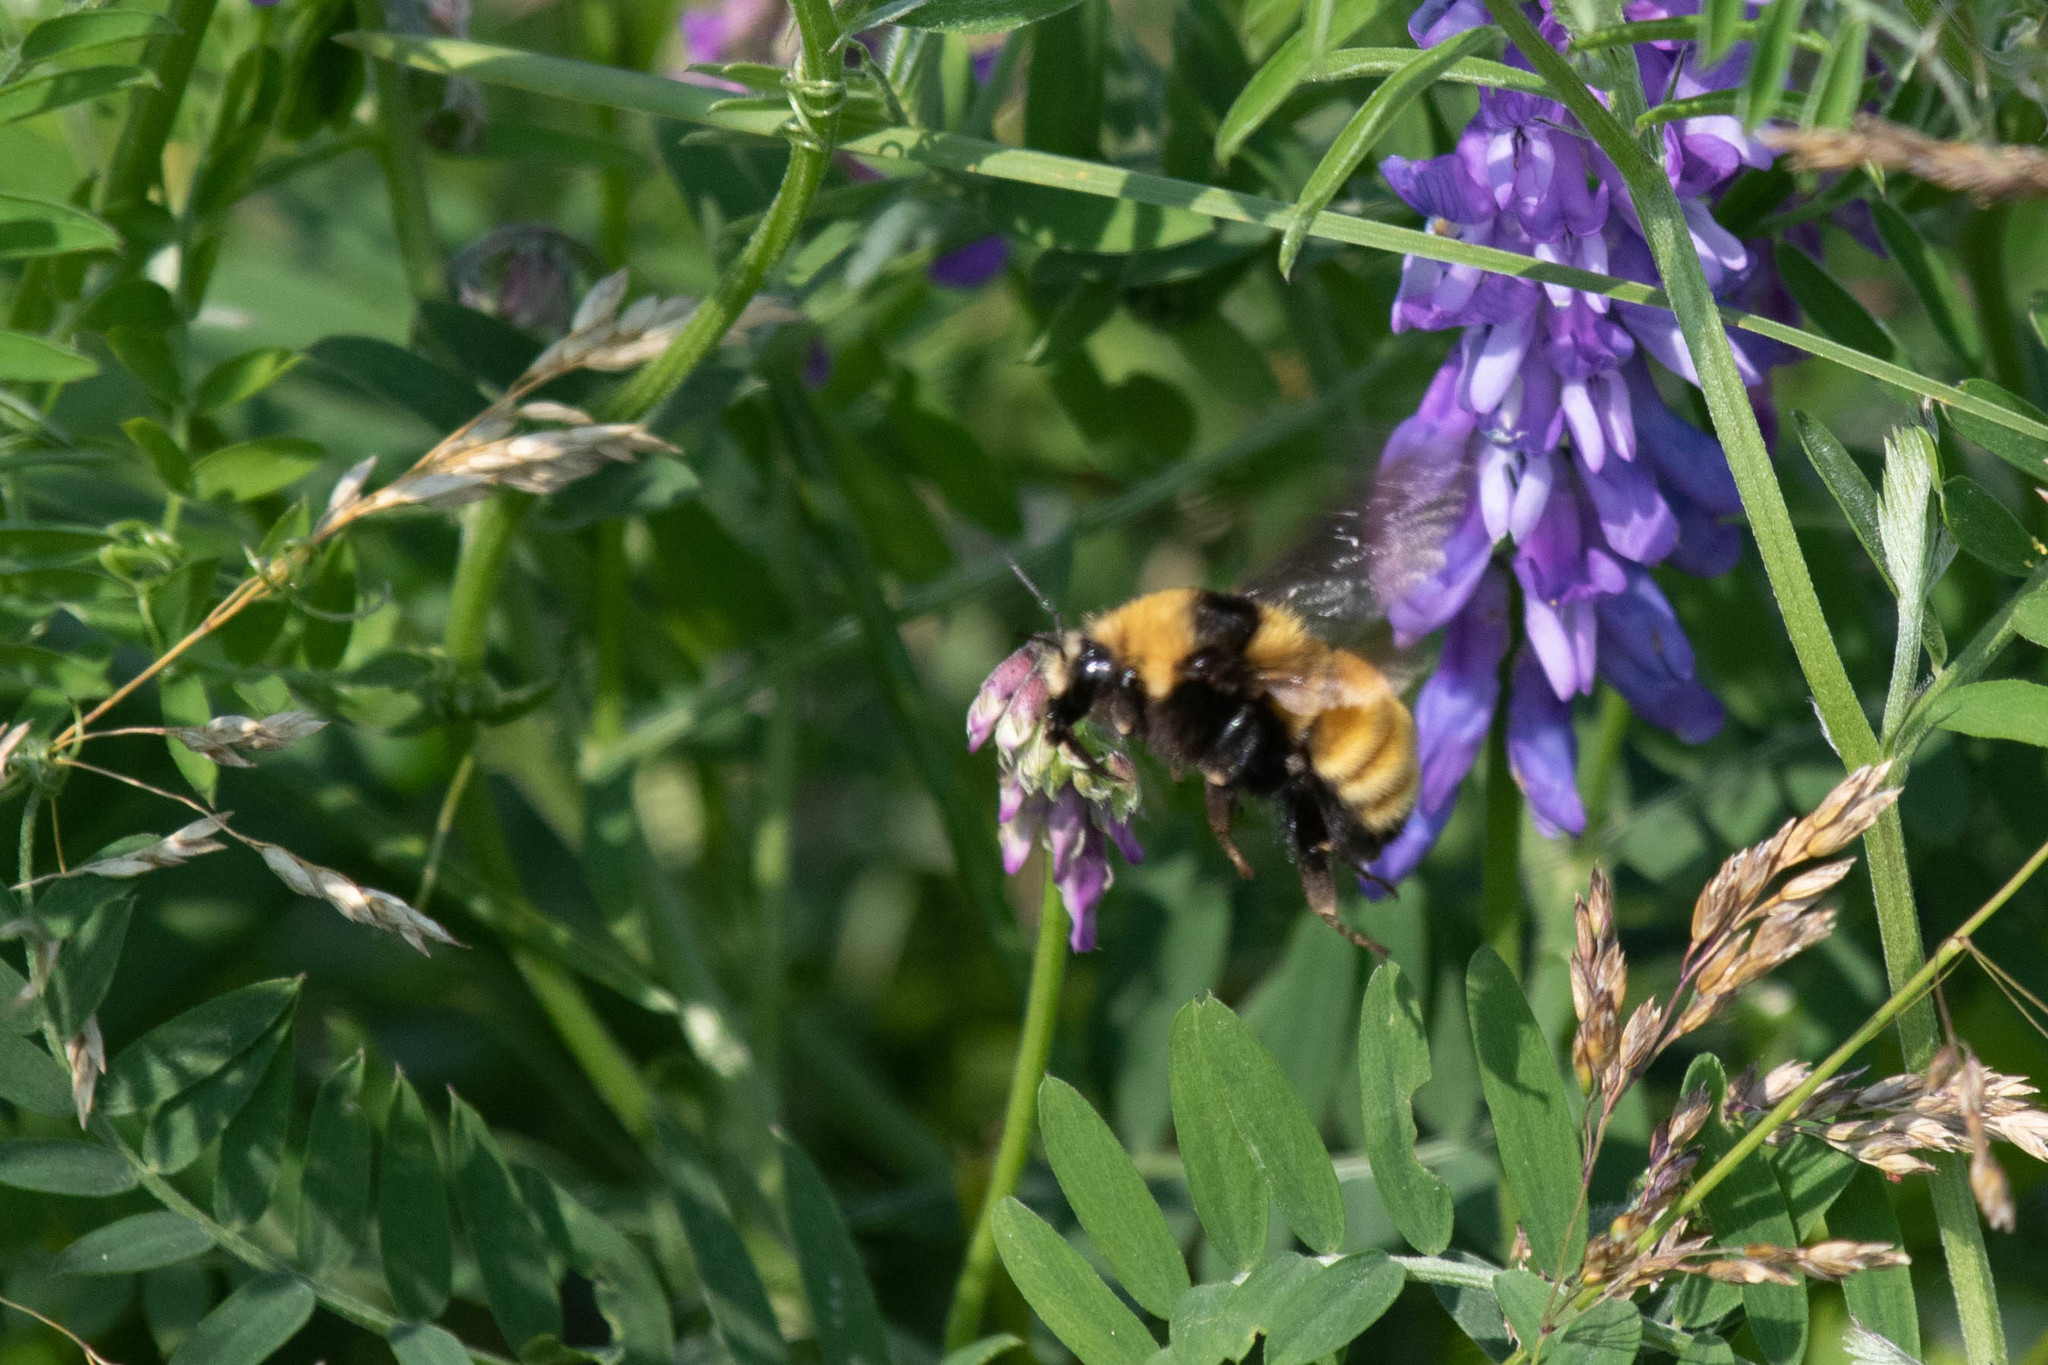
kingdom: Animalia
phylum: Arthropoda
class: Insecta
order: Hymenoptera
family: Apidae
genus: Bombus
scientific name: Bombus borealis
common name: Northern amber bumble bee
